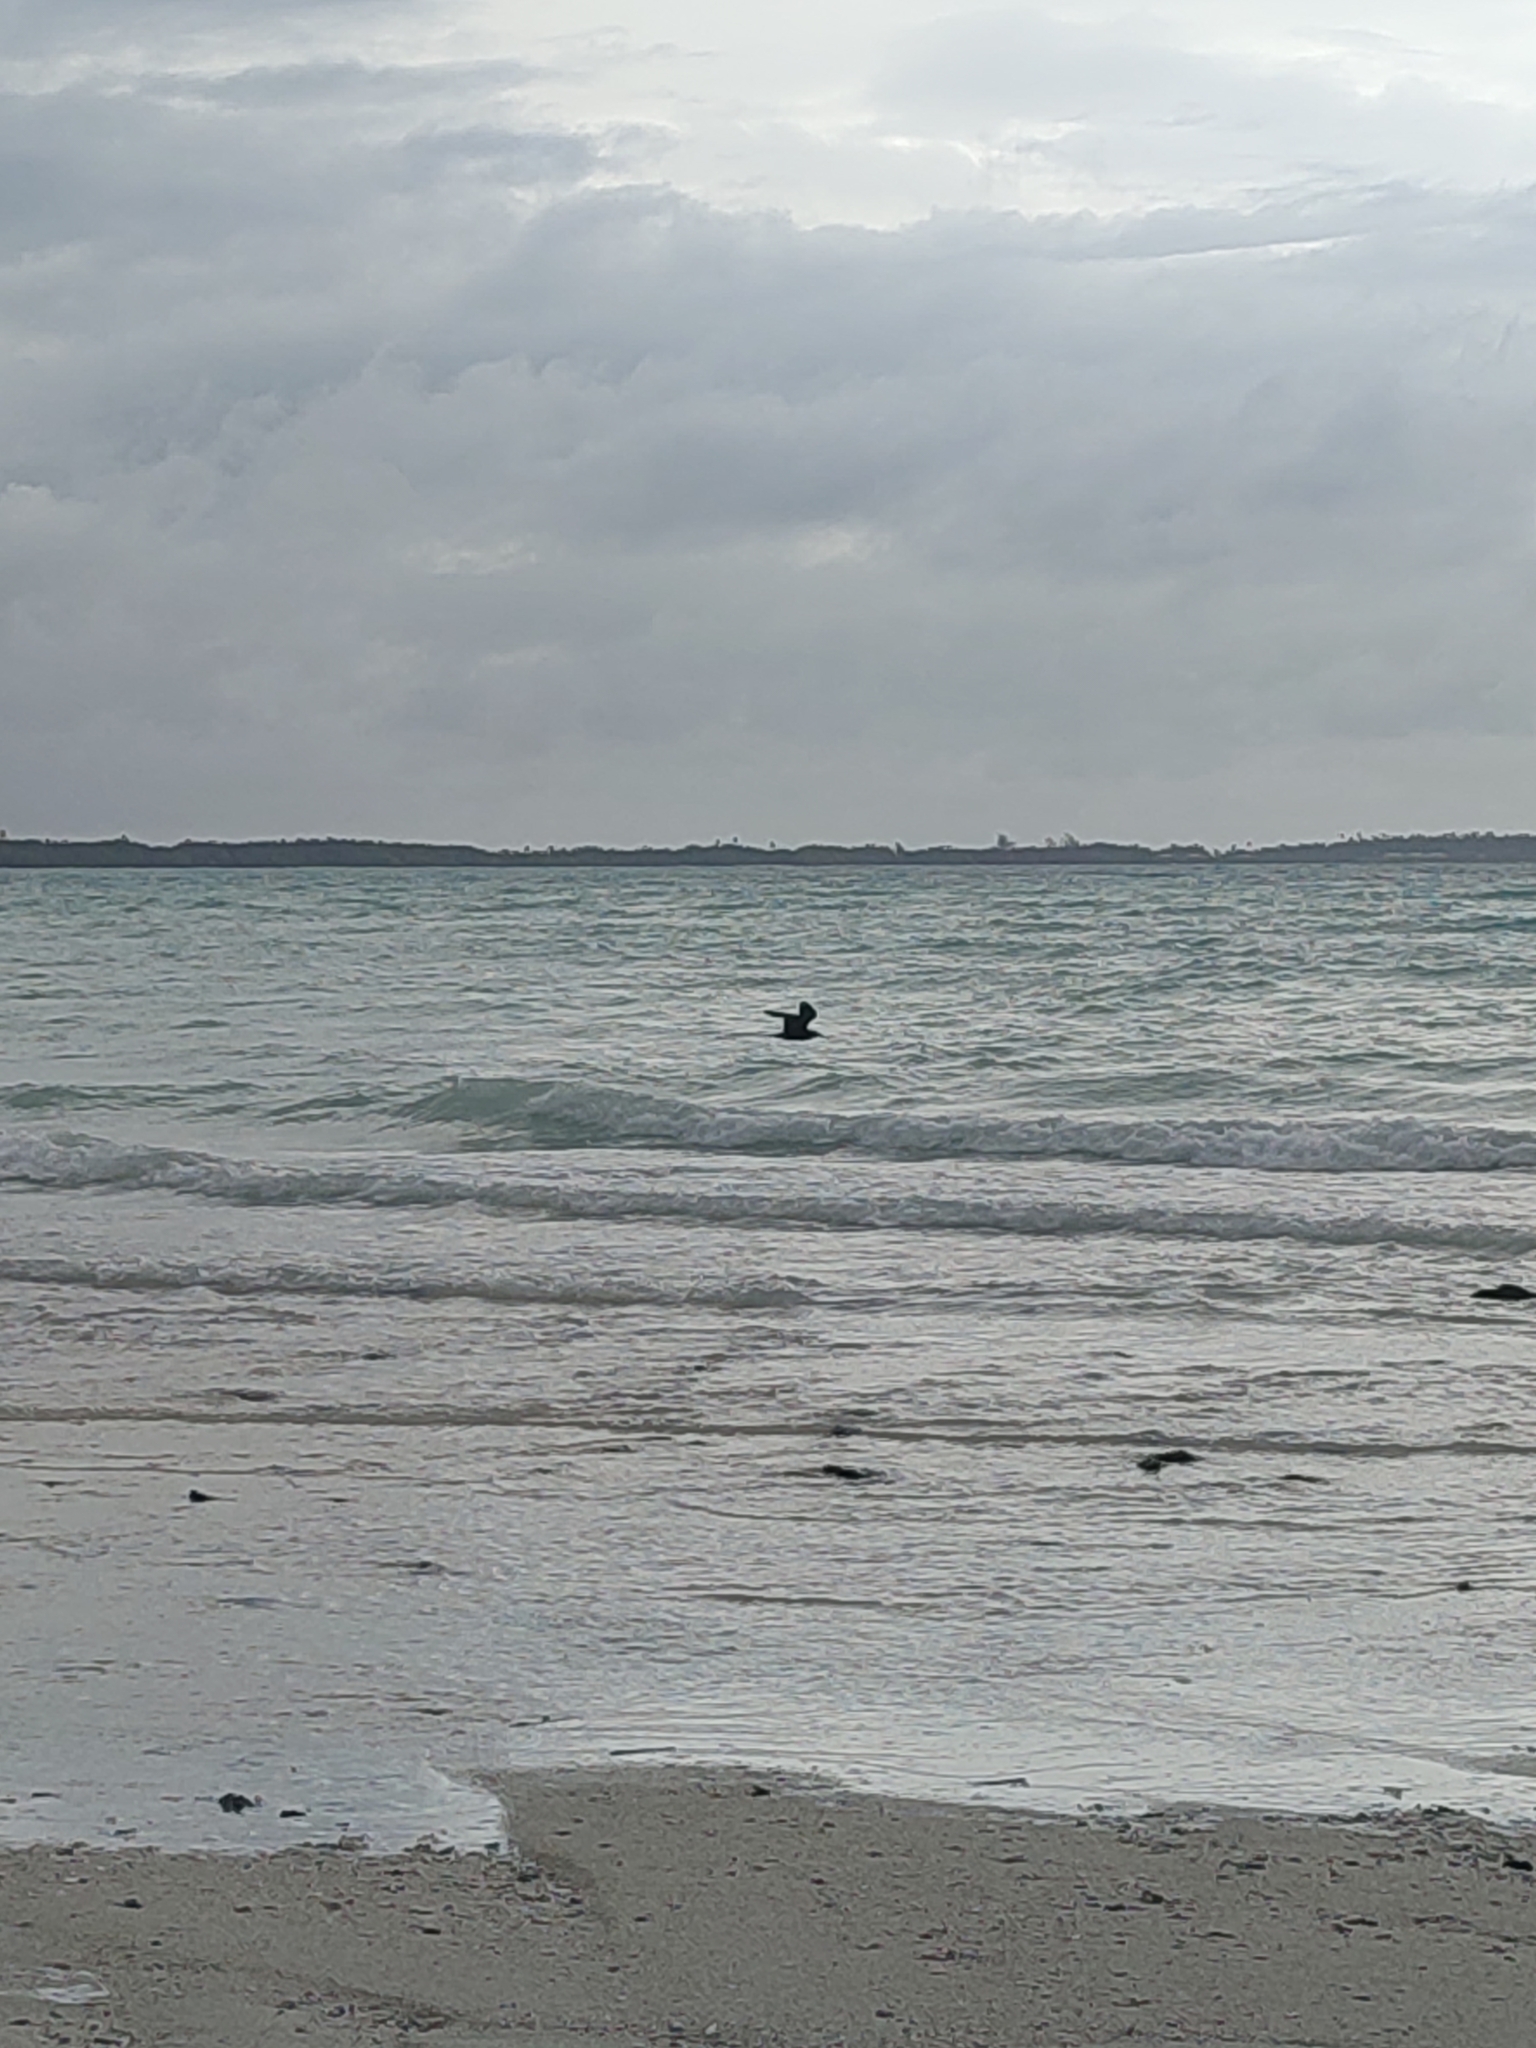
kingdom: Animalia
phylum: Chordata
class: Aves
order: Charadriiformes
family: Laridae
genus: Anous
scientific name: Anous stolidus
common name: Brown noddy
